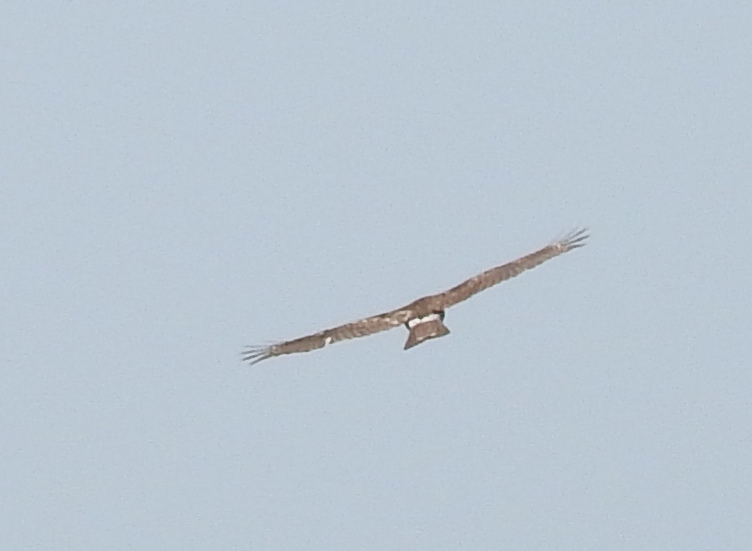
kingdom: Animalia
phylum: Chordata
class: Aves
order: Accipitriformes
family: Accipitridae
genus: Buteo
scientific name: Buteo
